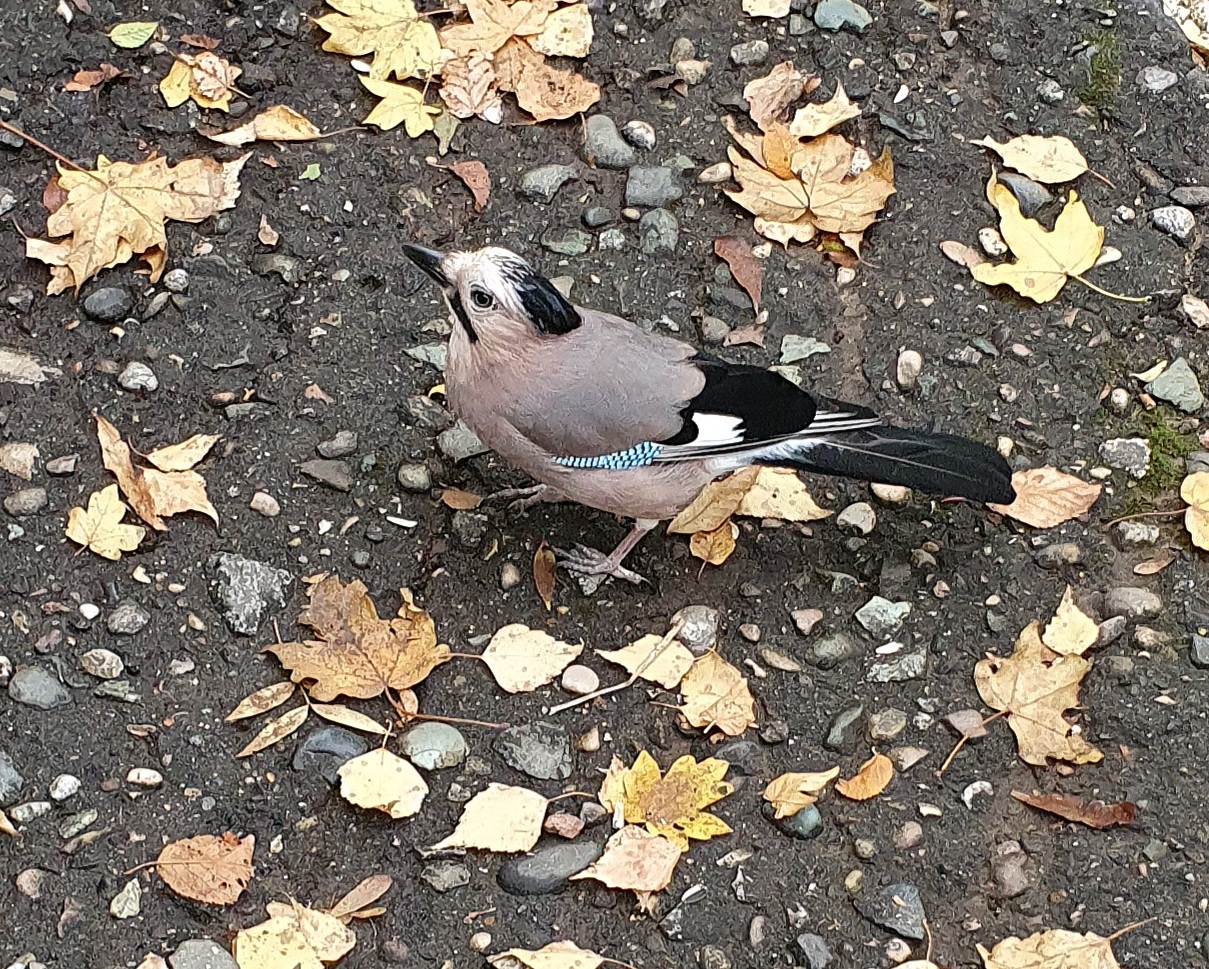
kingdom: Animalia
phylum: Chordata
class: Aves
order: Passeriformes
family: Corvidae
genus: Garrulus
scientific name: Garrulus glandarius
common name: Eurasian jay
